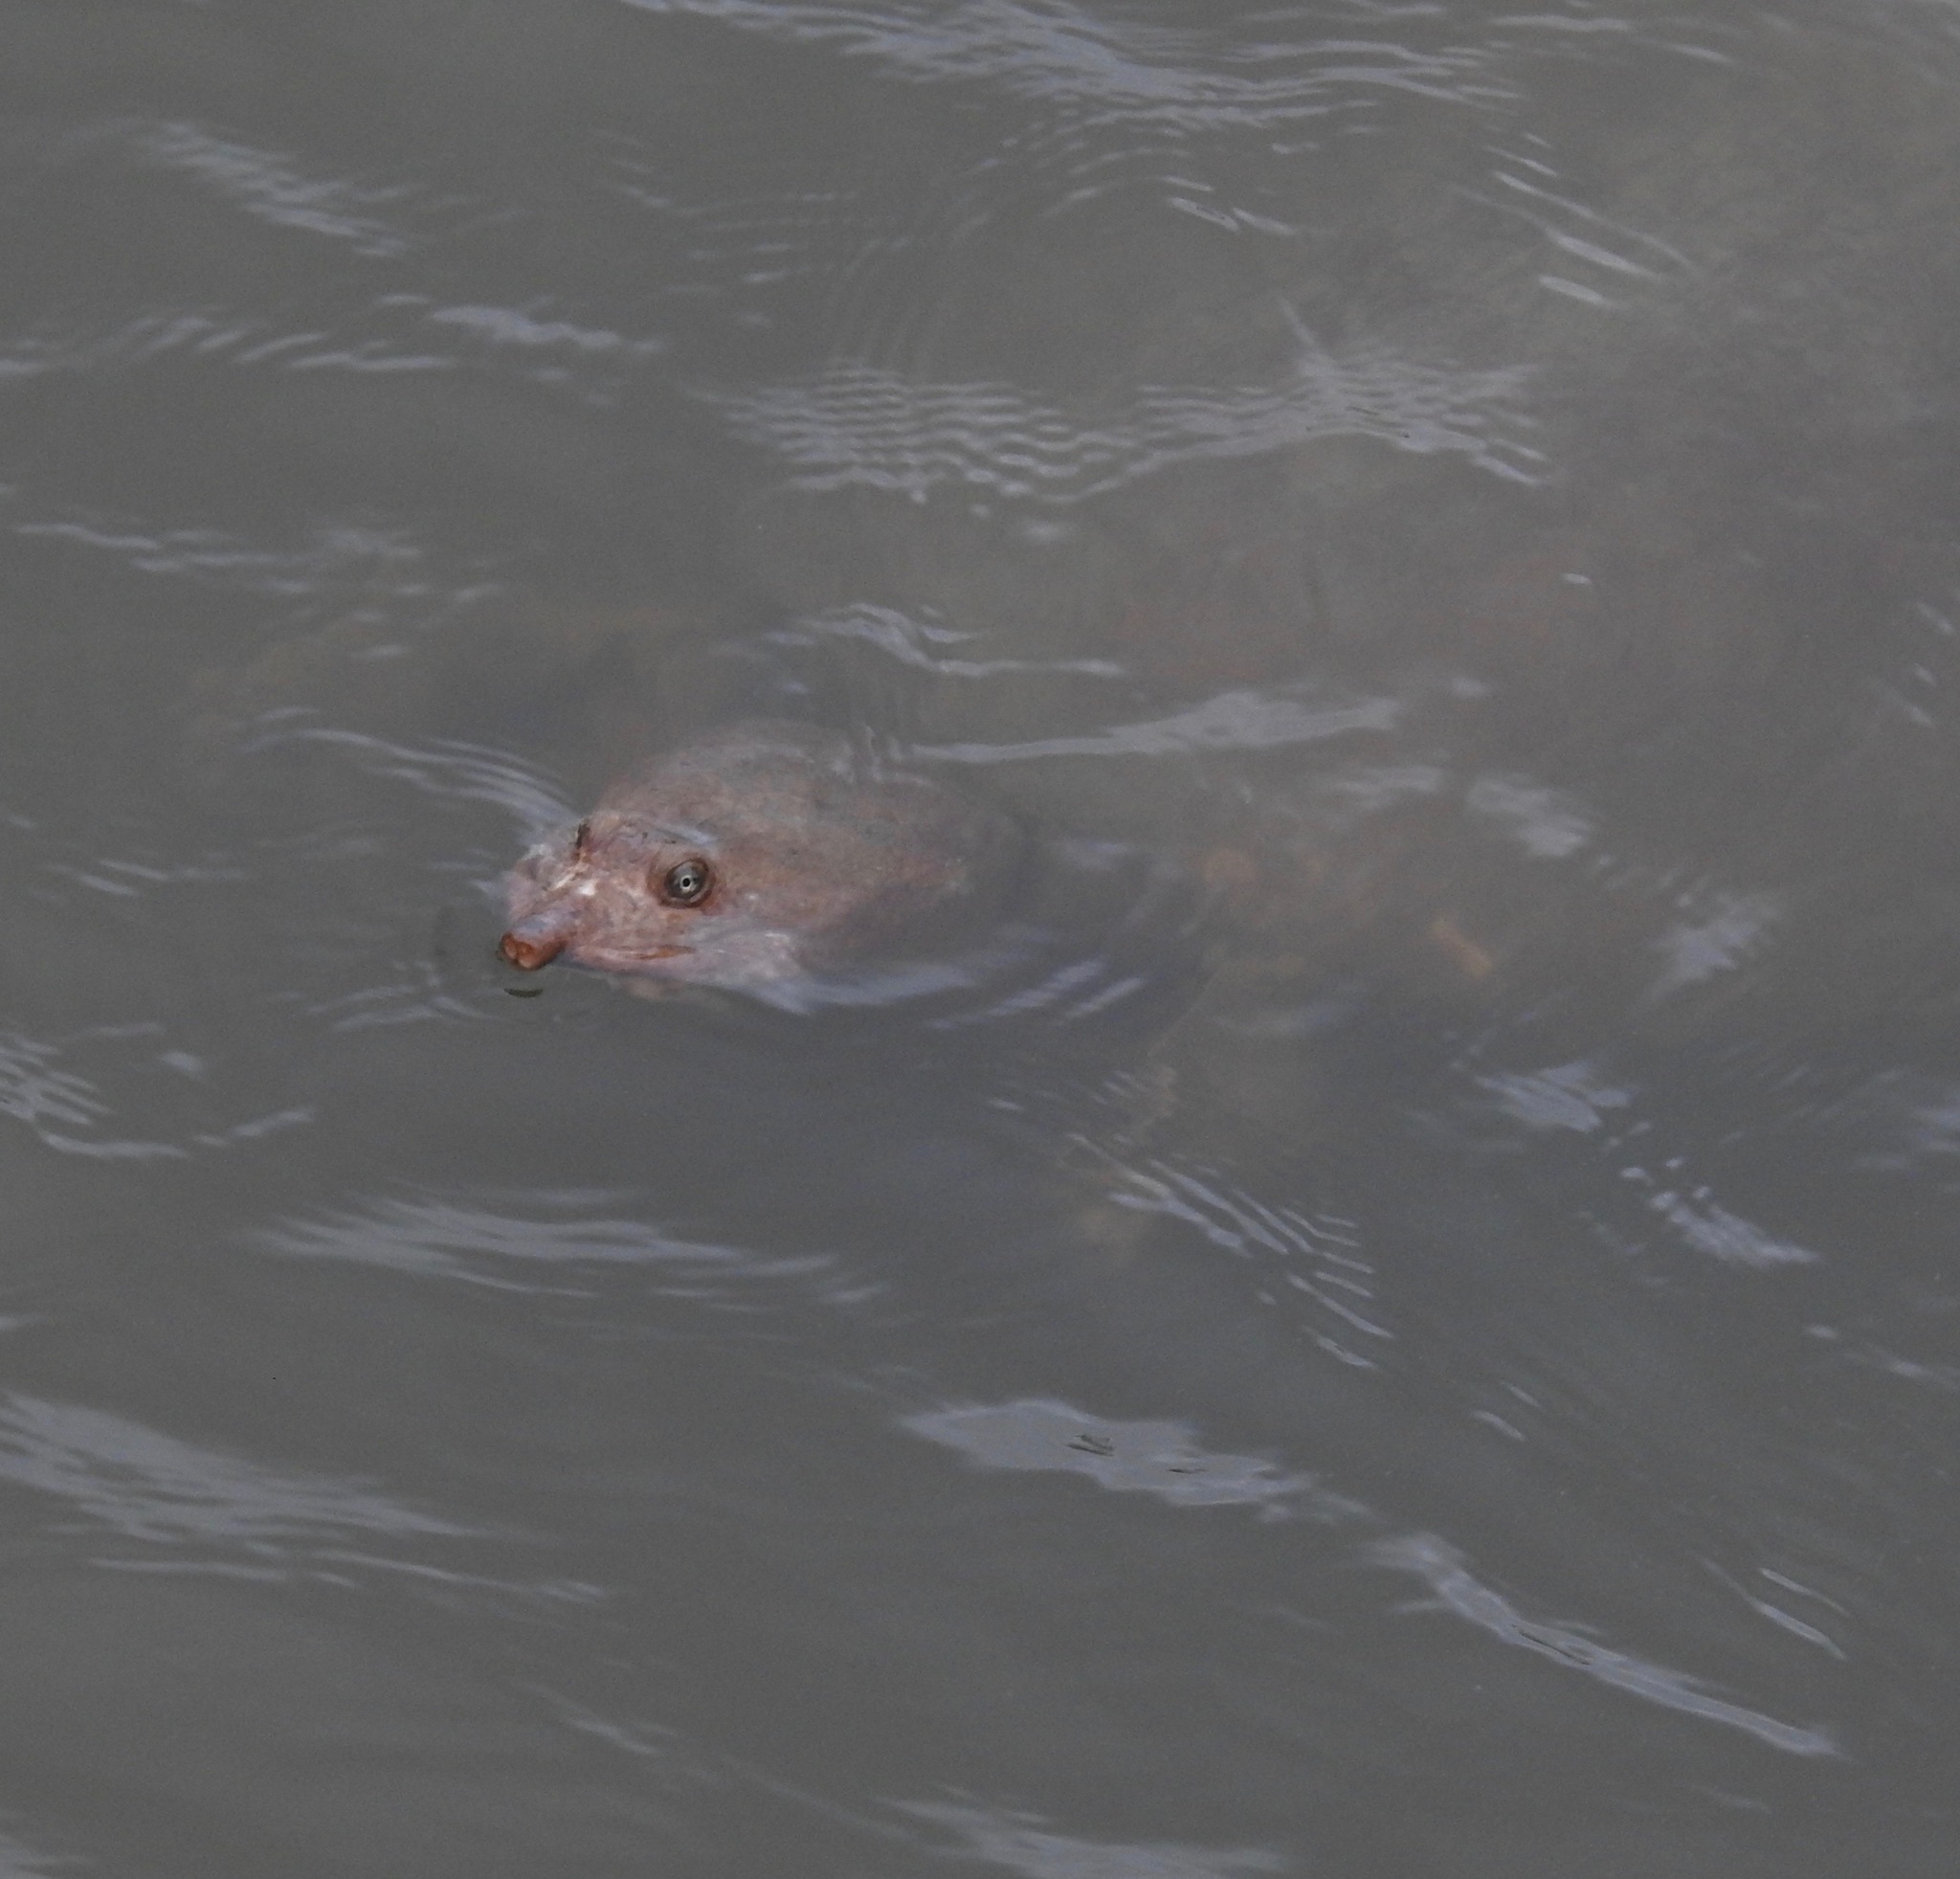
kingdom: Animalia
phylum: Chordata
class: Testudines
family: Trionychidae
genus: Apalone
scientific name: Apalone ferox
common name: Florida softshell turtle
